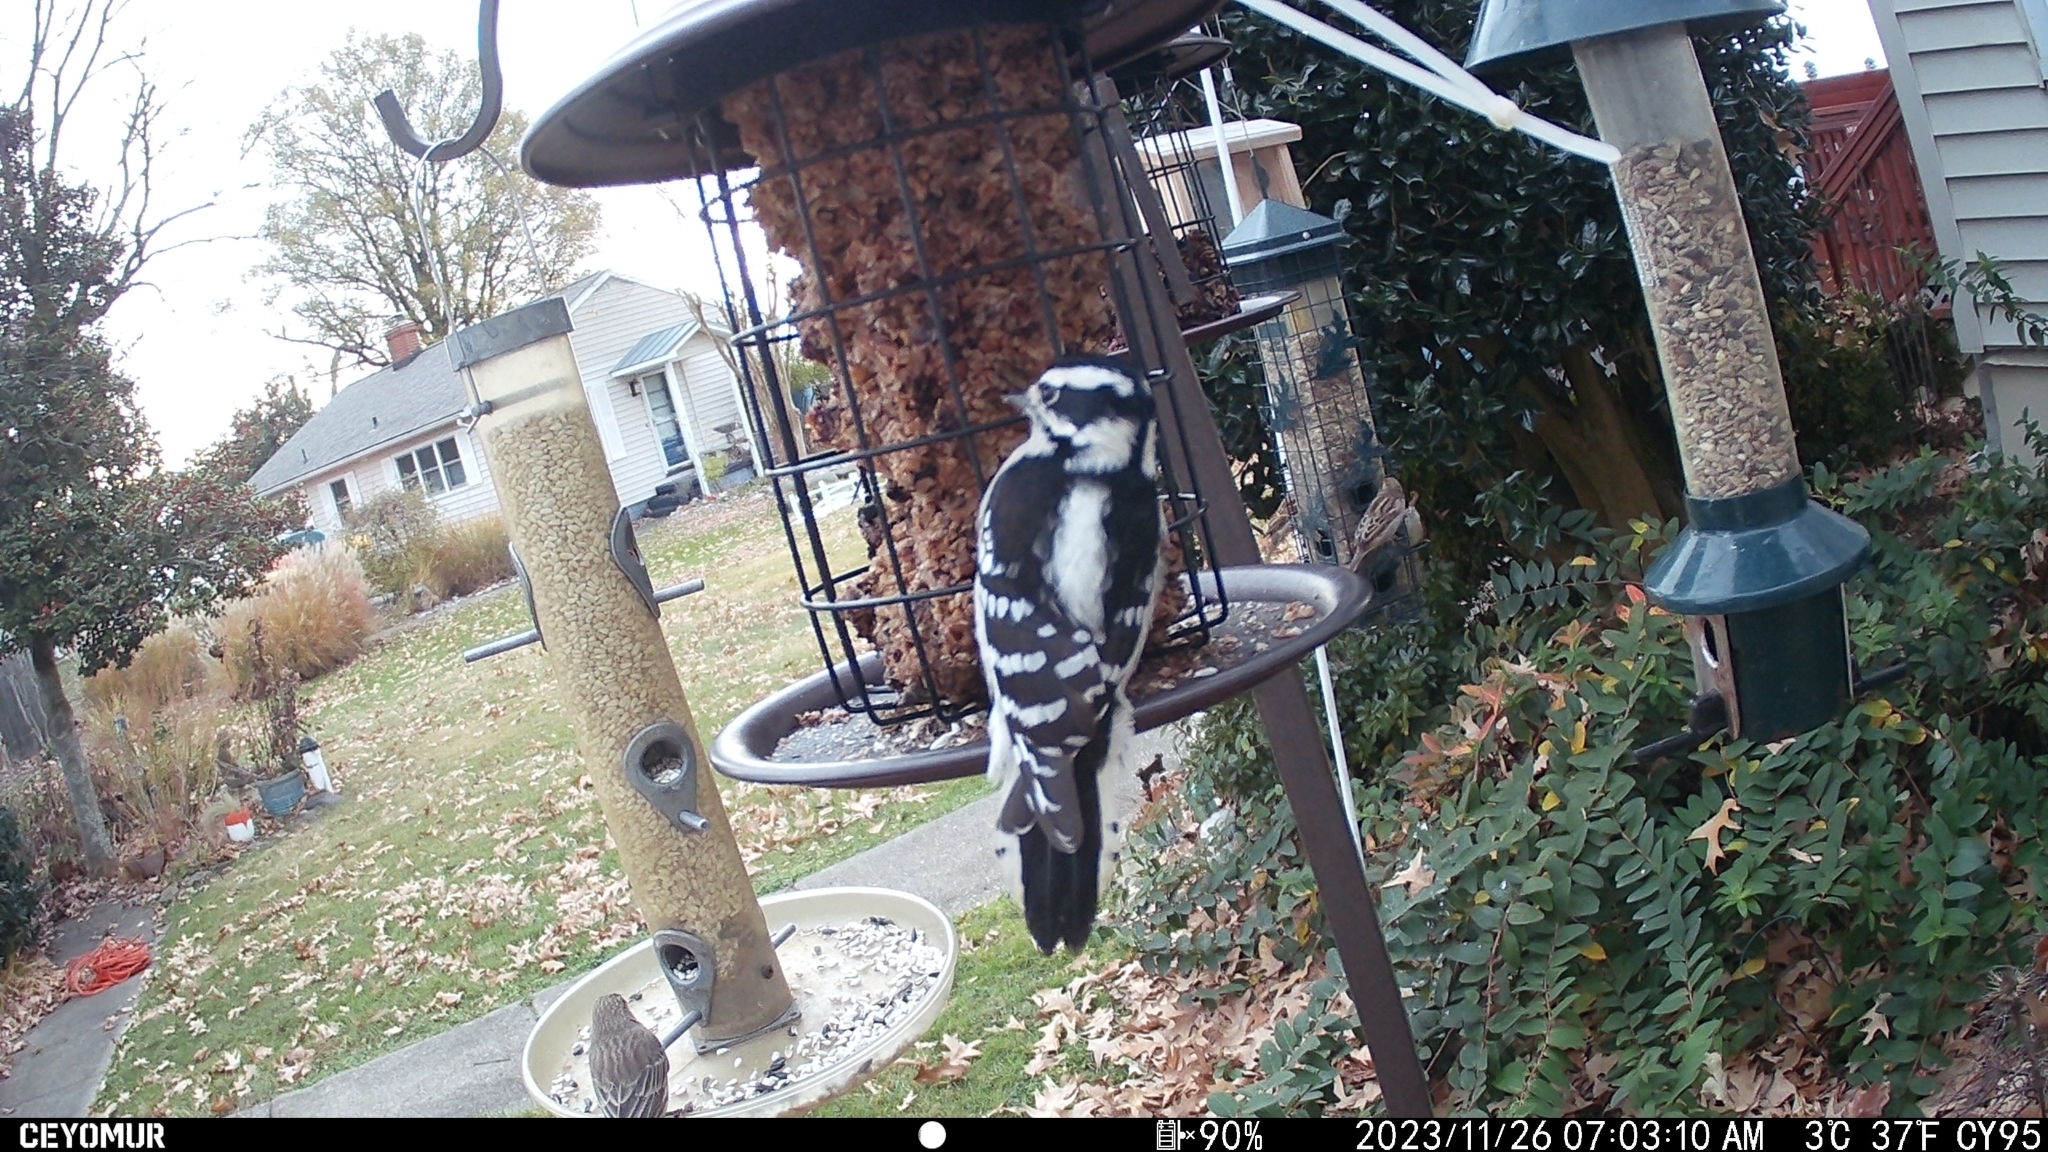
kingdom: Animalia
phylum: Chordata
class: Aves
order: Piciformes
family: Picidae
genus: Dryobates
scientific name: Dryobates pubescens
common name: Downy woodpecker
